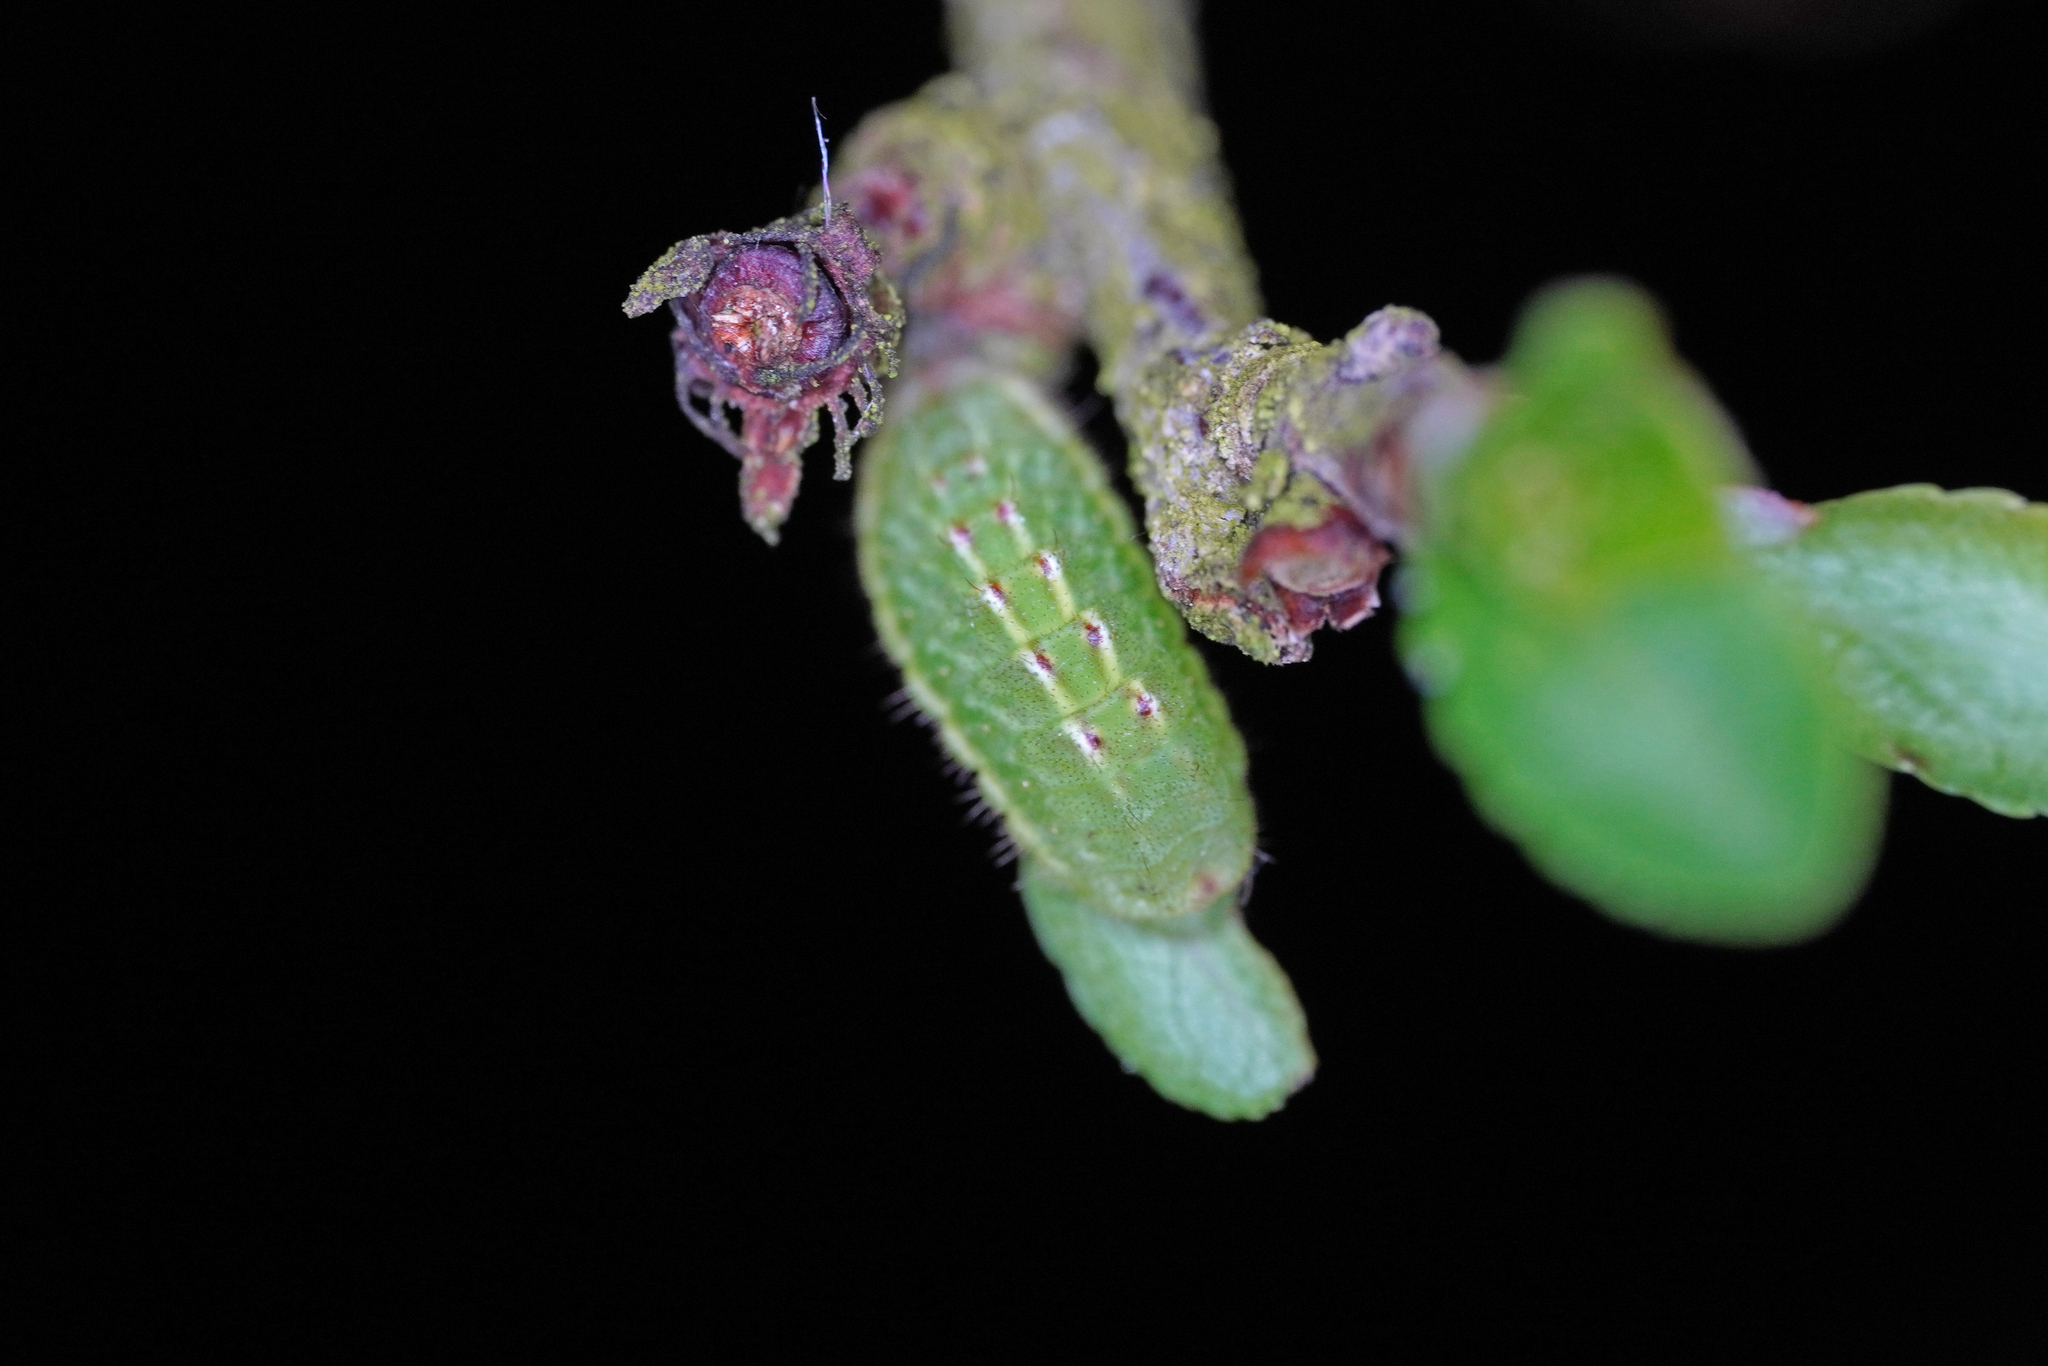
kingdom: Animalia
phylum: Arthropoda
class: Insecta
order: Lepidoptera
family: Lycaenidae
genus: Fixsenia
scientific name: Fixsenia pruni
